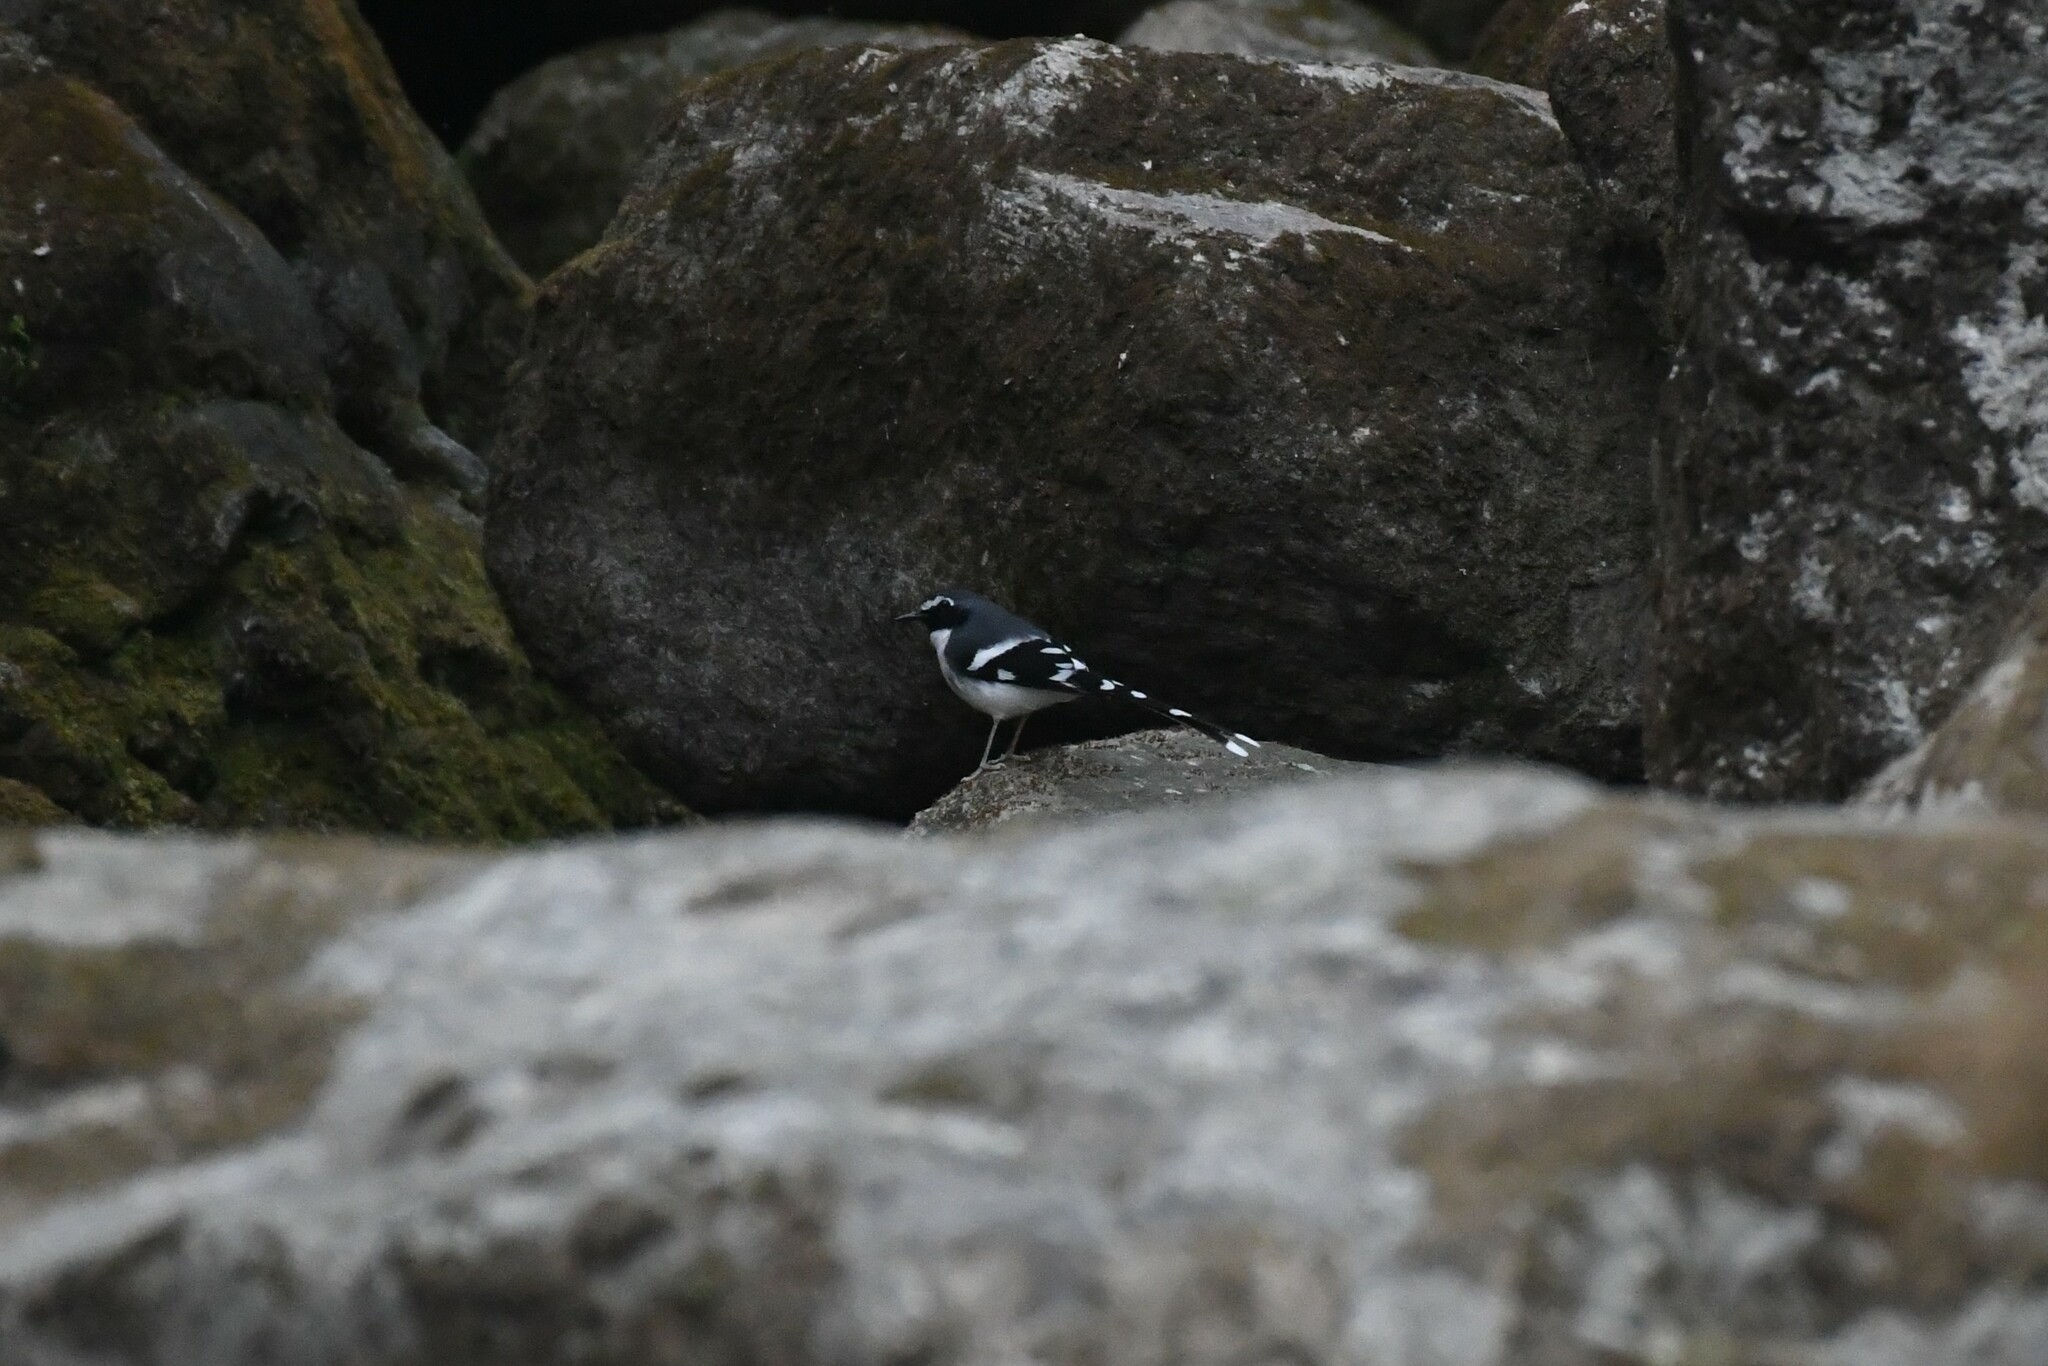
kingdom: Animalia
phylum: Chordata
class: Aves
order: Passeriformes
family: Muscicapidae
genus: Enicurus
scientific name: Enicurus schistaceus
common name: Slaty-backed forktail
